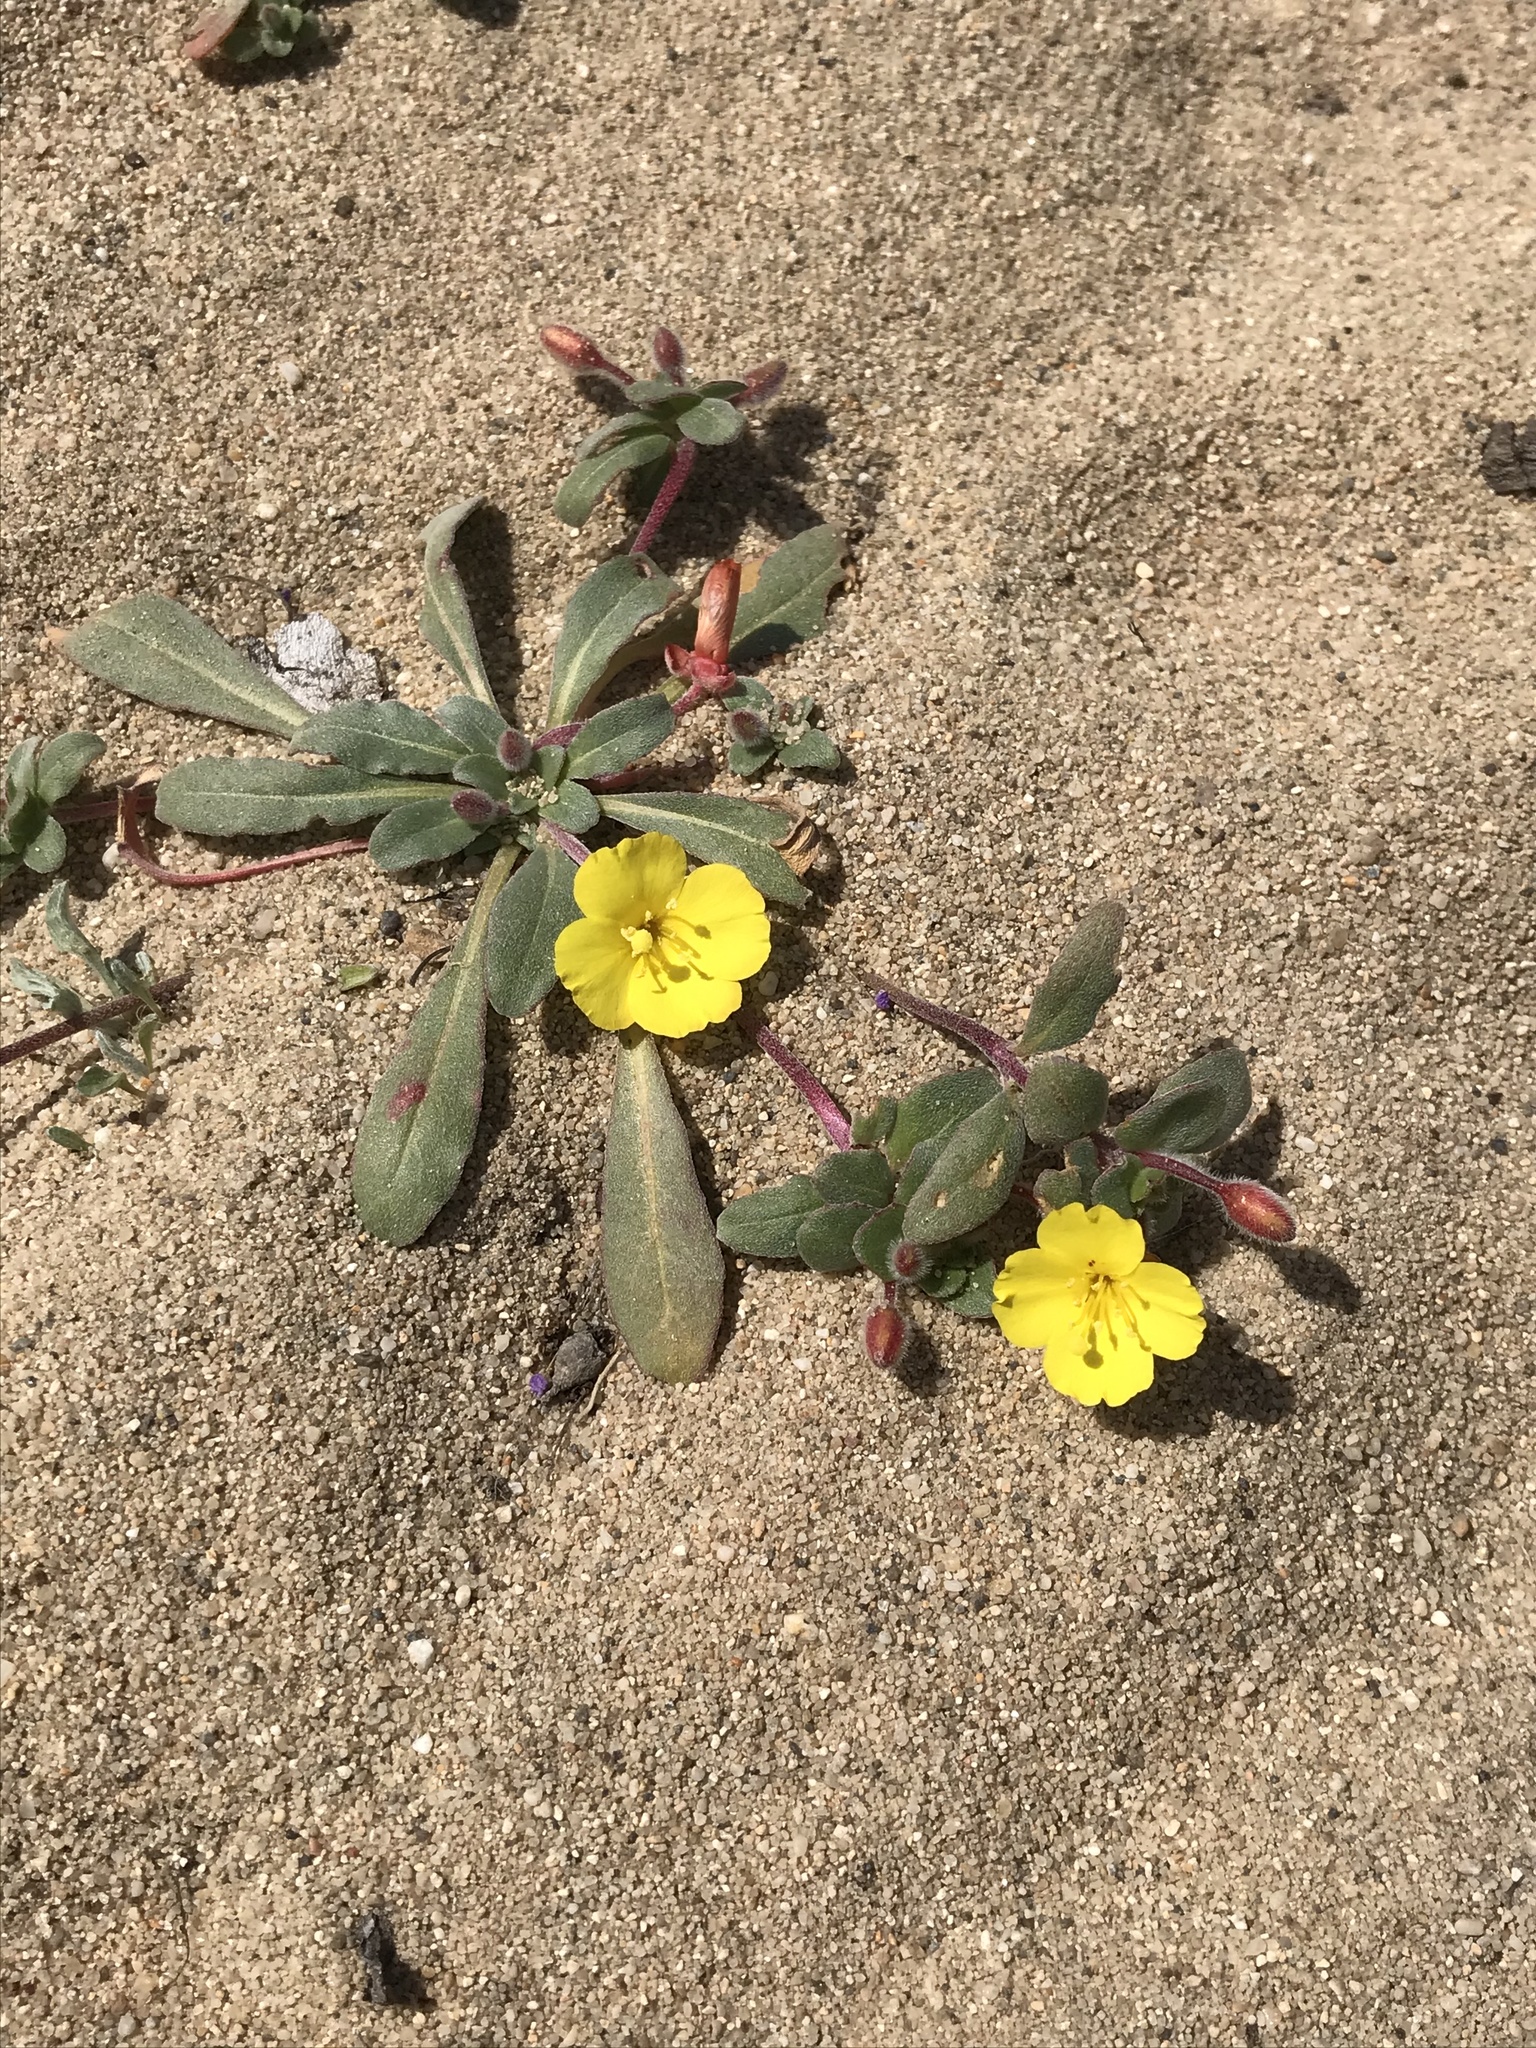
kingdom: Plantae
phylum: Tracheophyta
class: Magnoliopsida
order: Myrtales
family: Onagraceae
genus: Camissoniopsis
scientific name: Camissoniopsis cheiranthifolia
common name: Beach suncup
